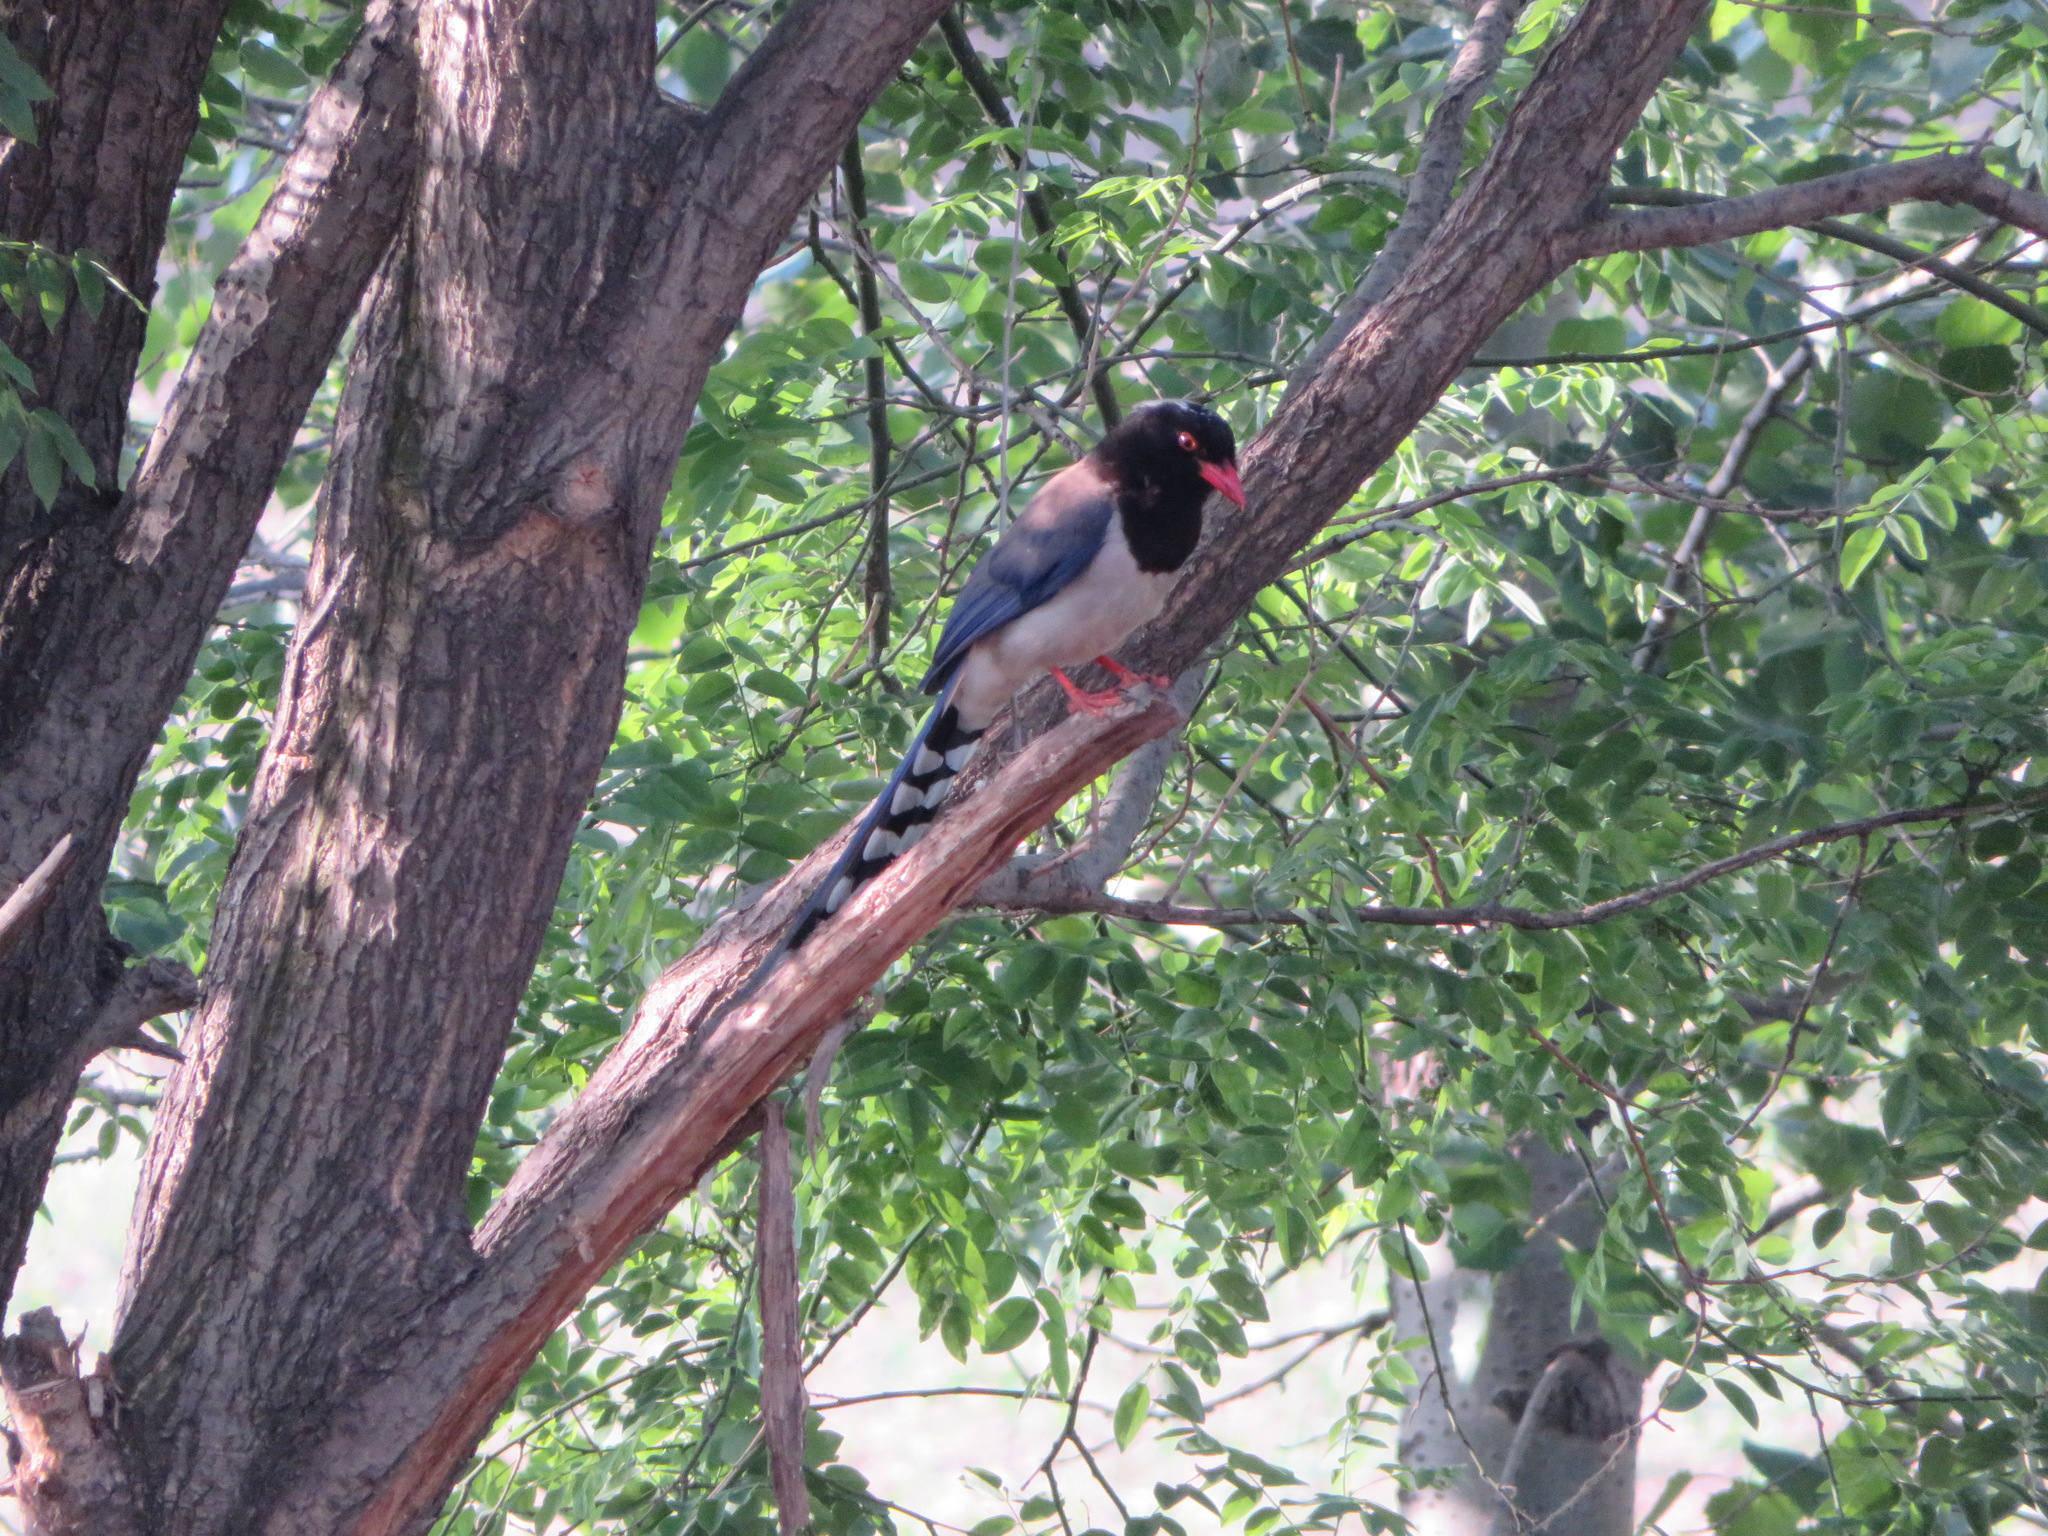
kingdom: Animalia
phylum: Chordata
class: Aves
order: Passeriformes
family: Corvidae
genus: Urocissa
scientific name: Urocissa erythroryncha
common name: Red-billed blue magpie
